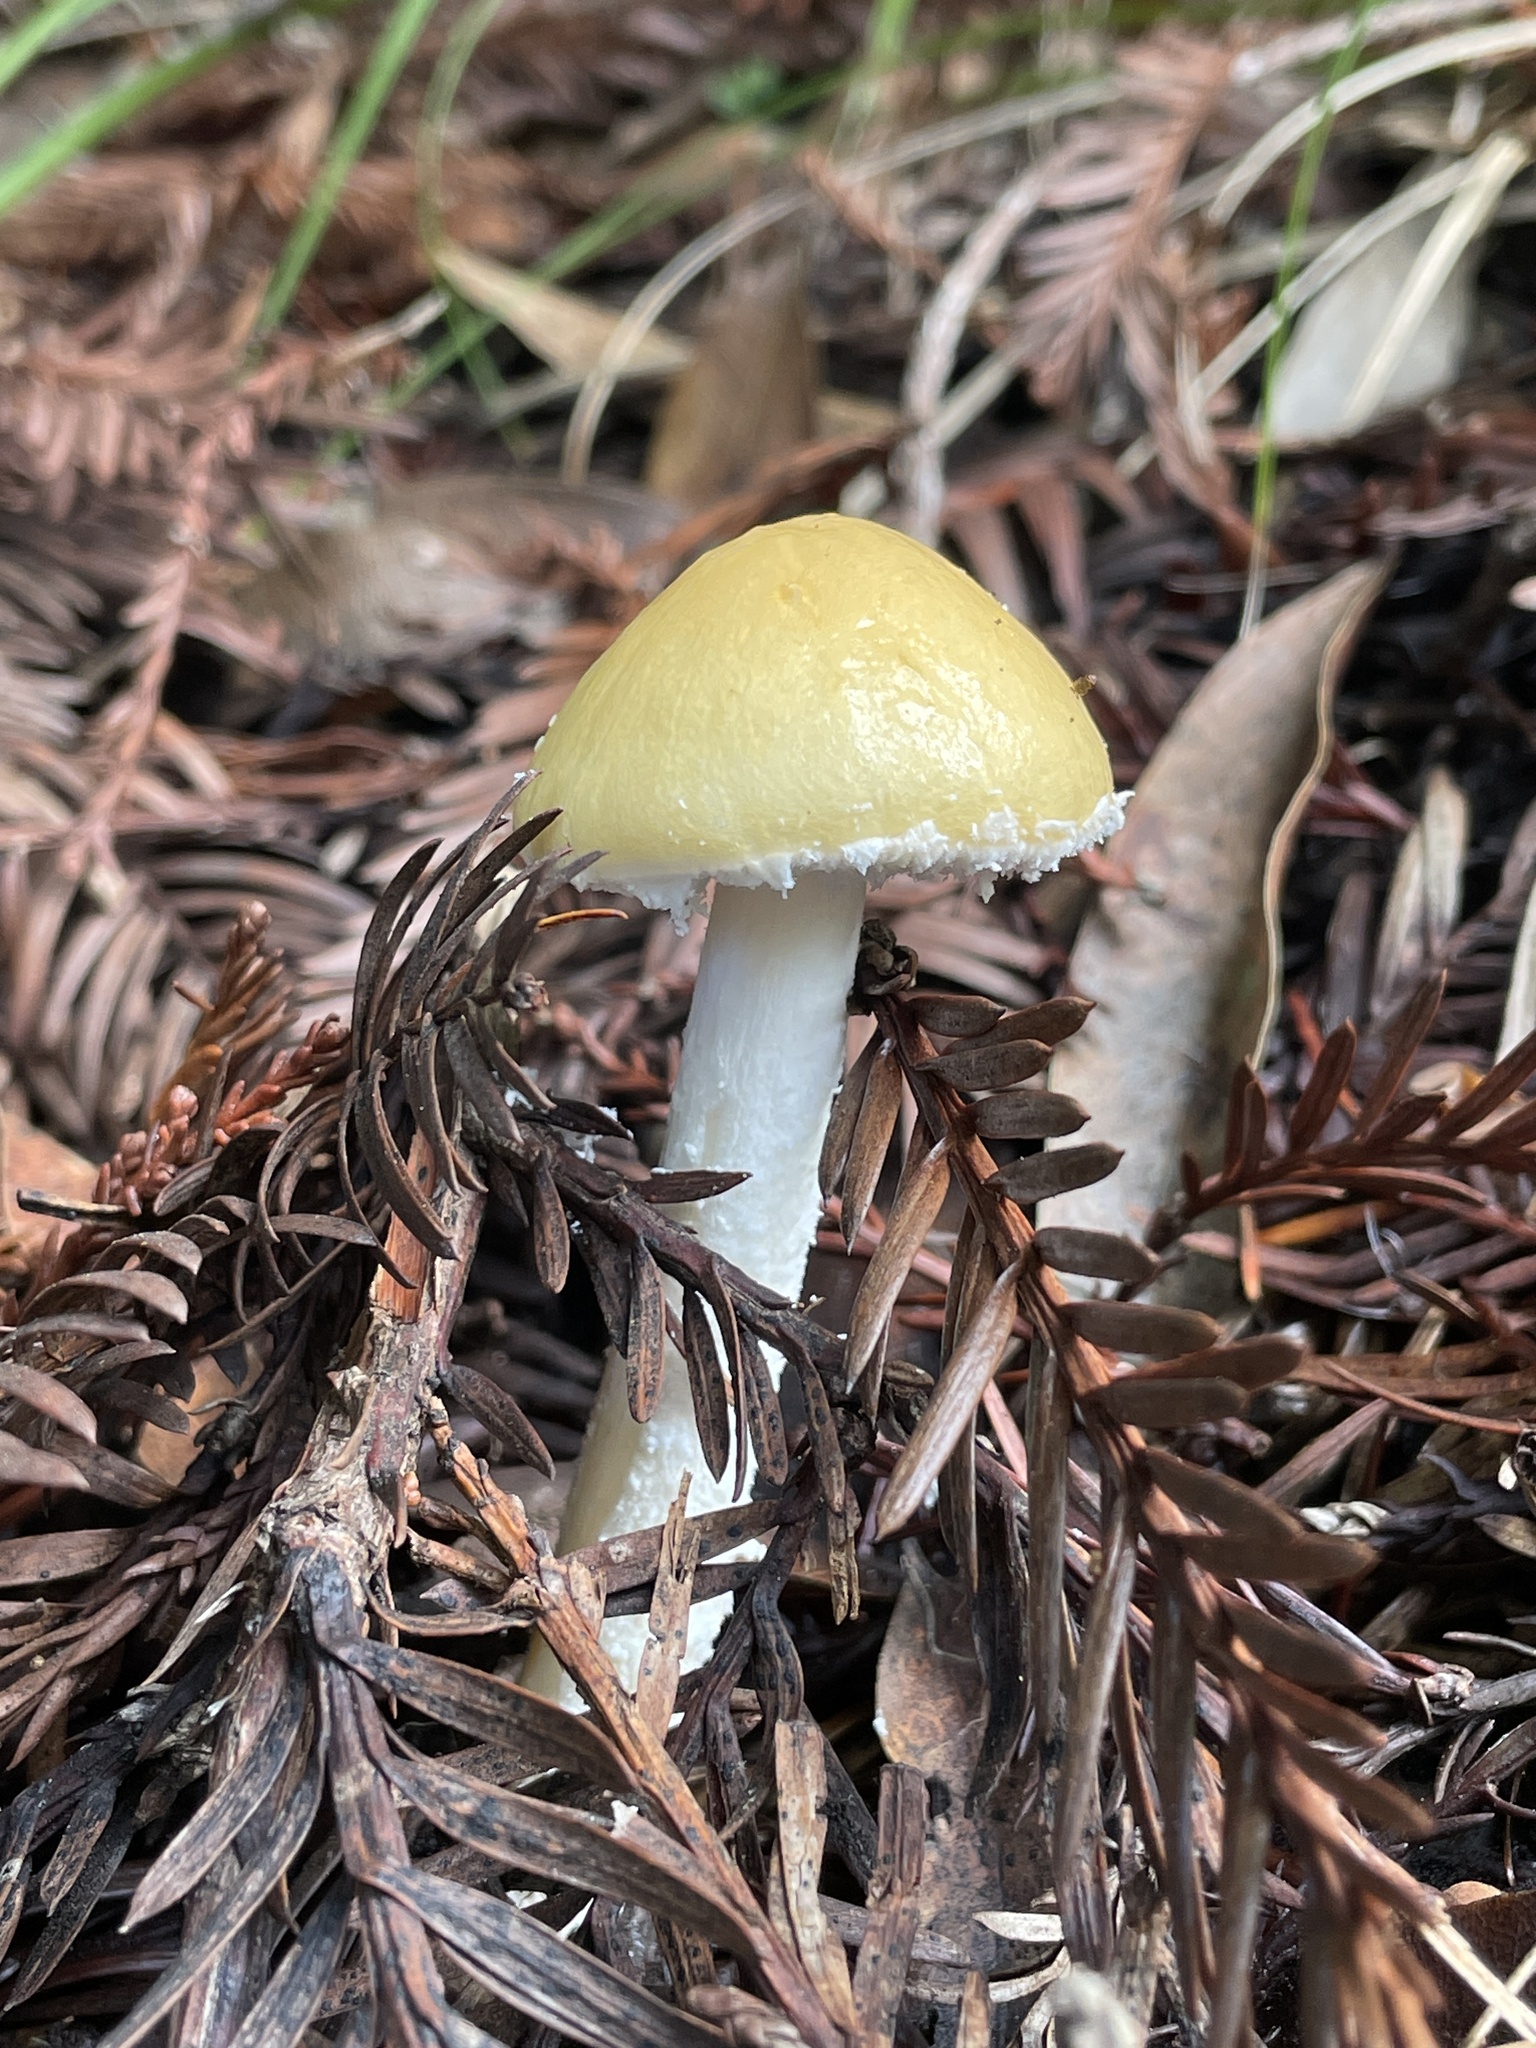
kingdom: Fungi
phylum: Basidiomycota
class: Agaricomycetes
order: Agaricales
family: Strophariaceae
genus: Stropharia
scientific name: Stropharia ambigua
